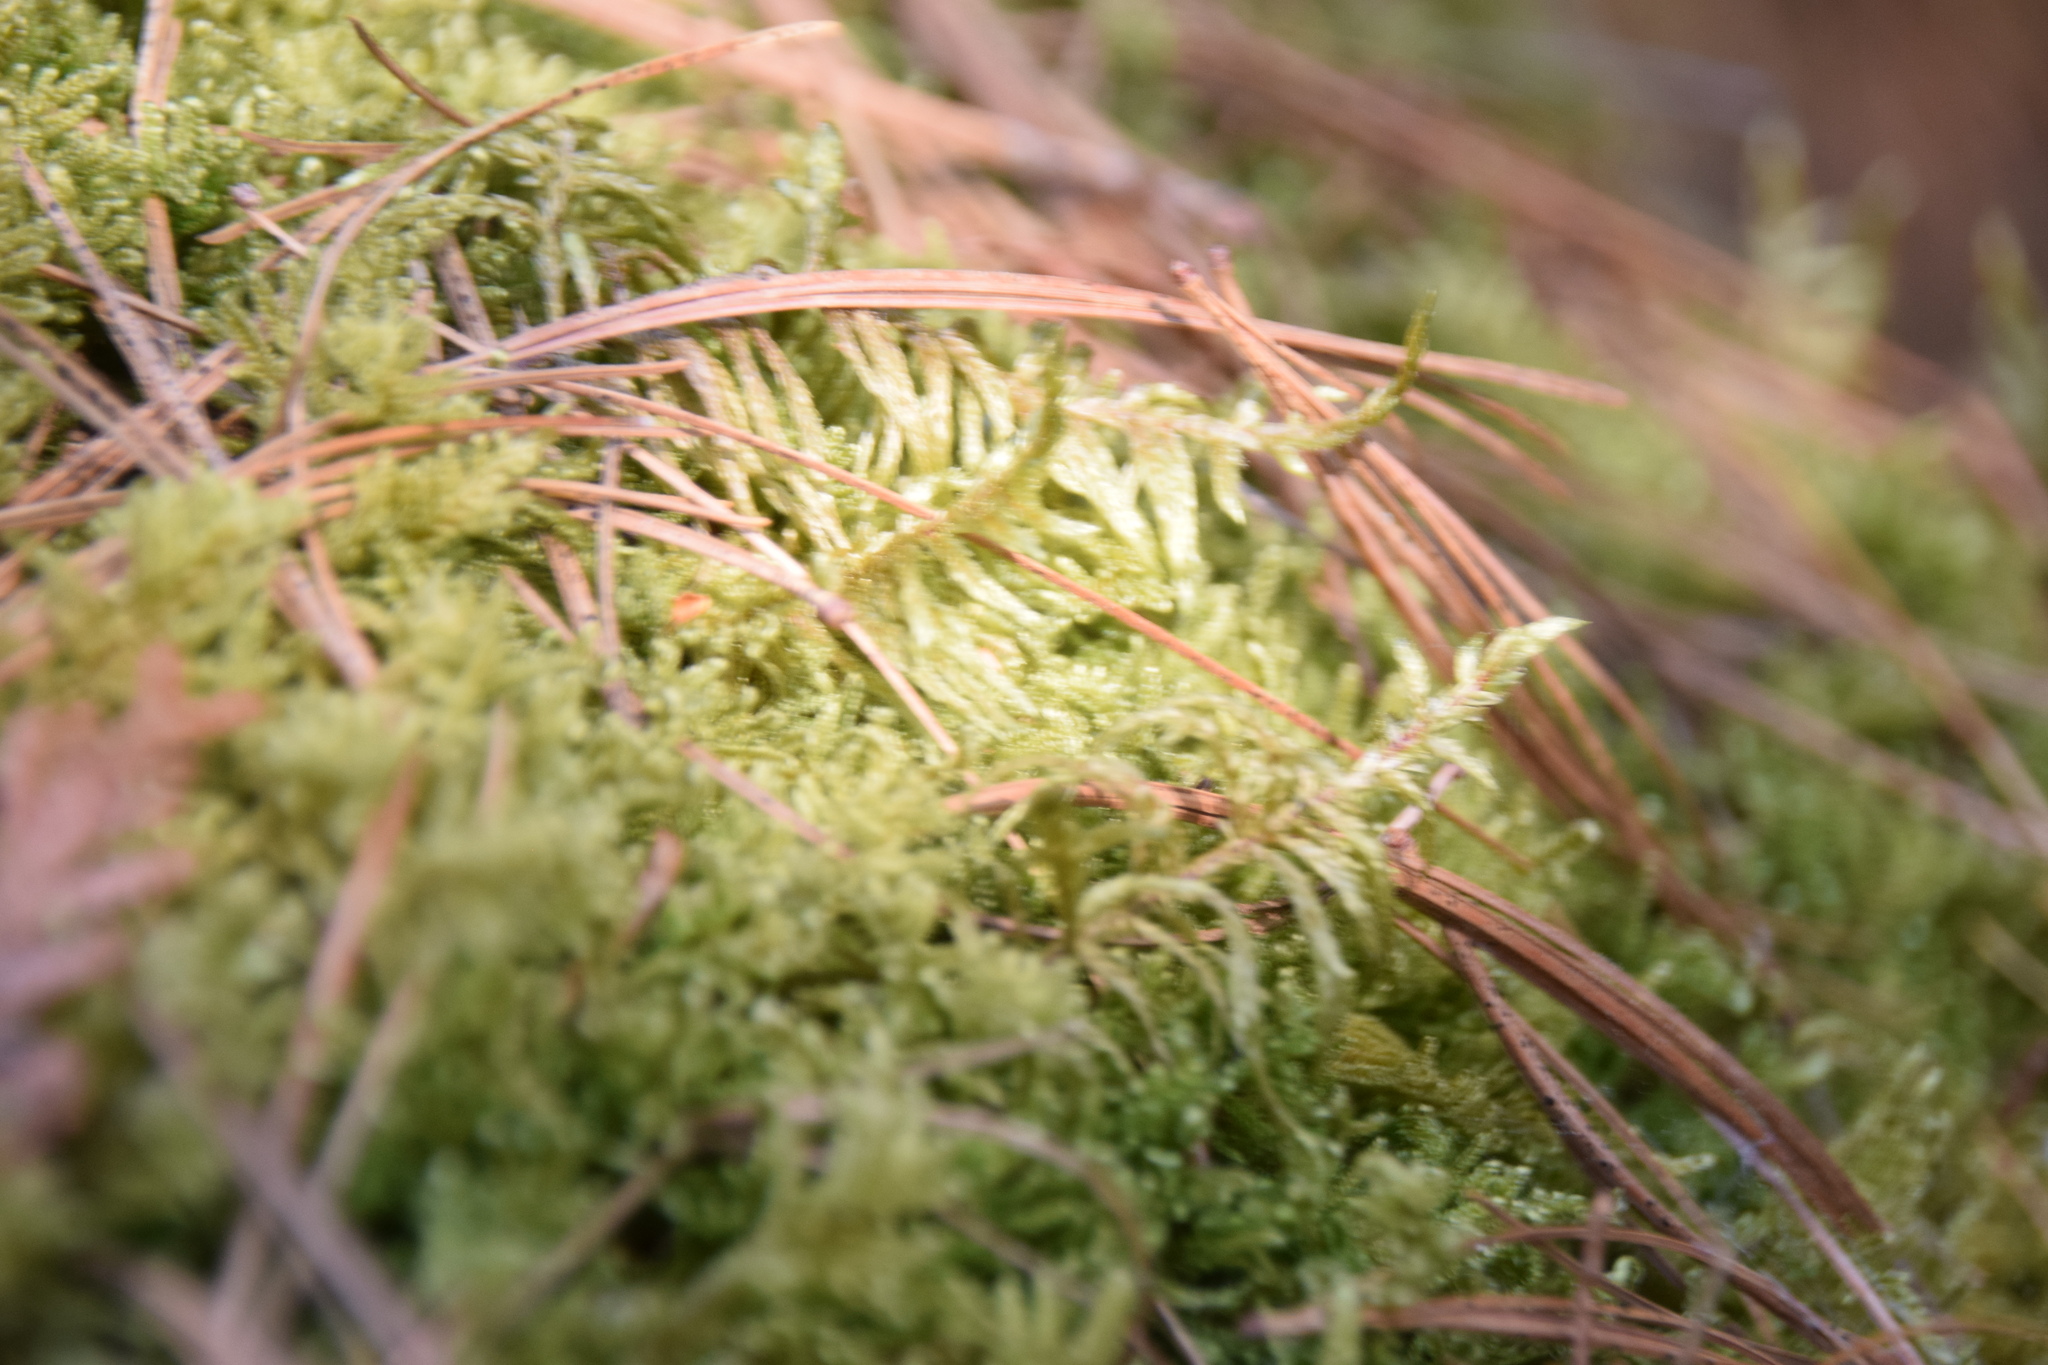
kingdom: Plantae
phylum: Bryophyta
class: Bryopsida
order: Hypnales
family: Hylocomiaceae
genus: Pleurozium
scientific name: Pleurozium schreberi
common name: Red-stemmed feather moss
